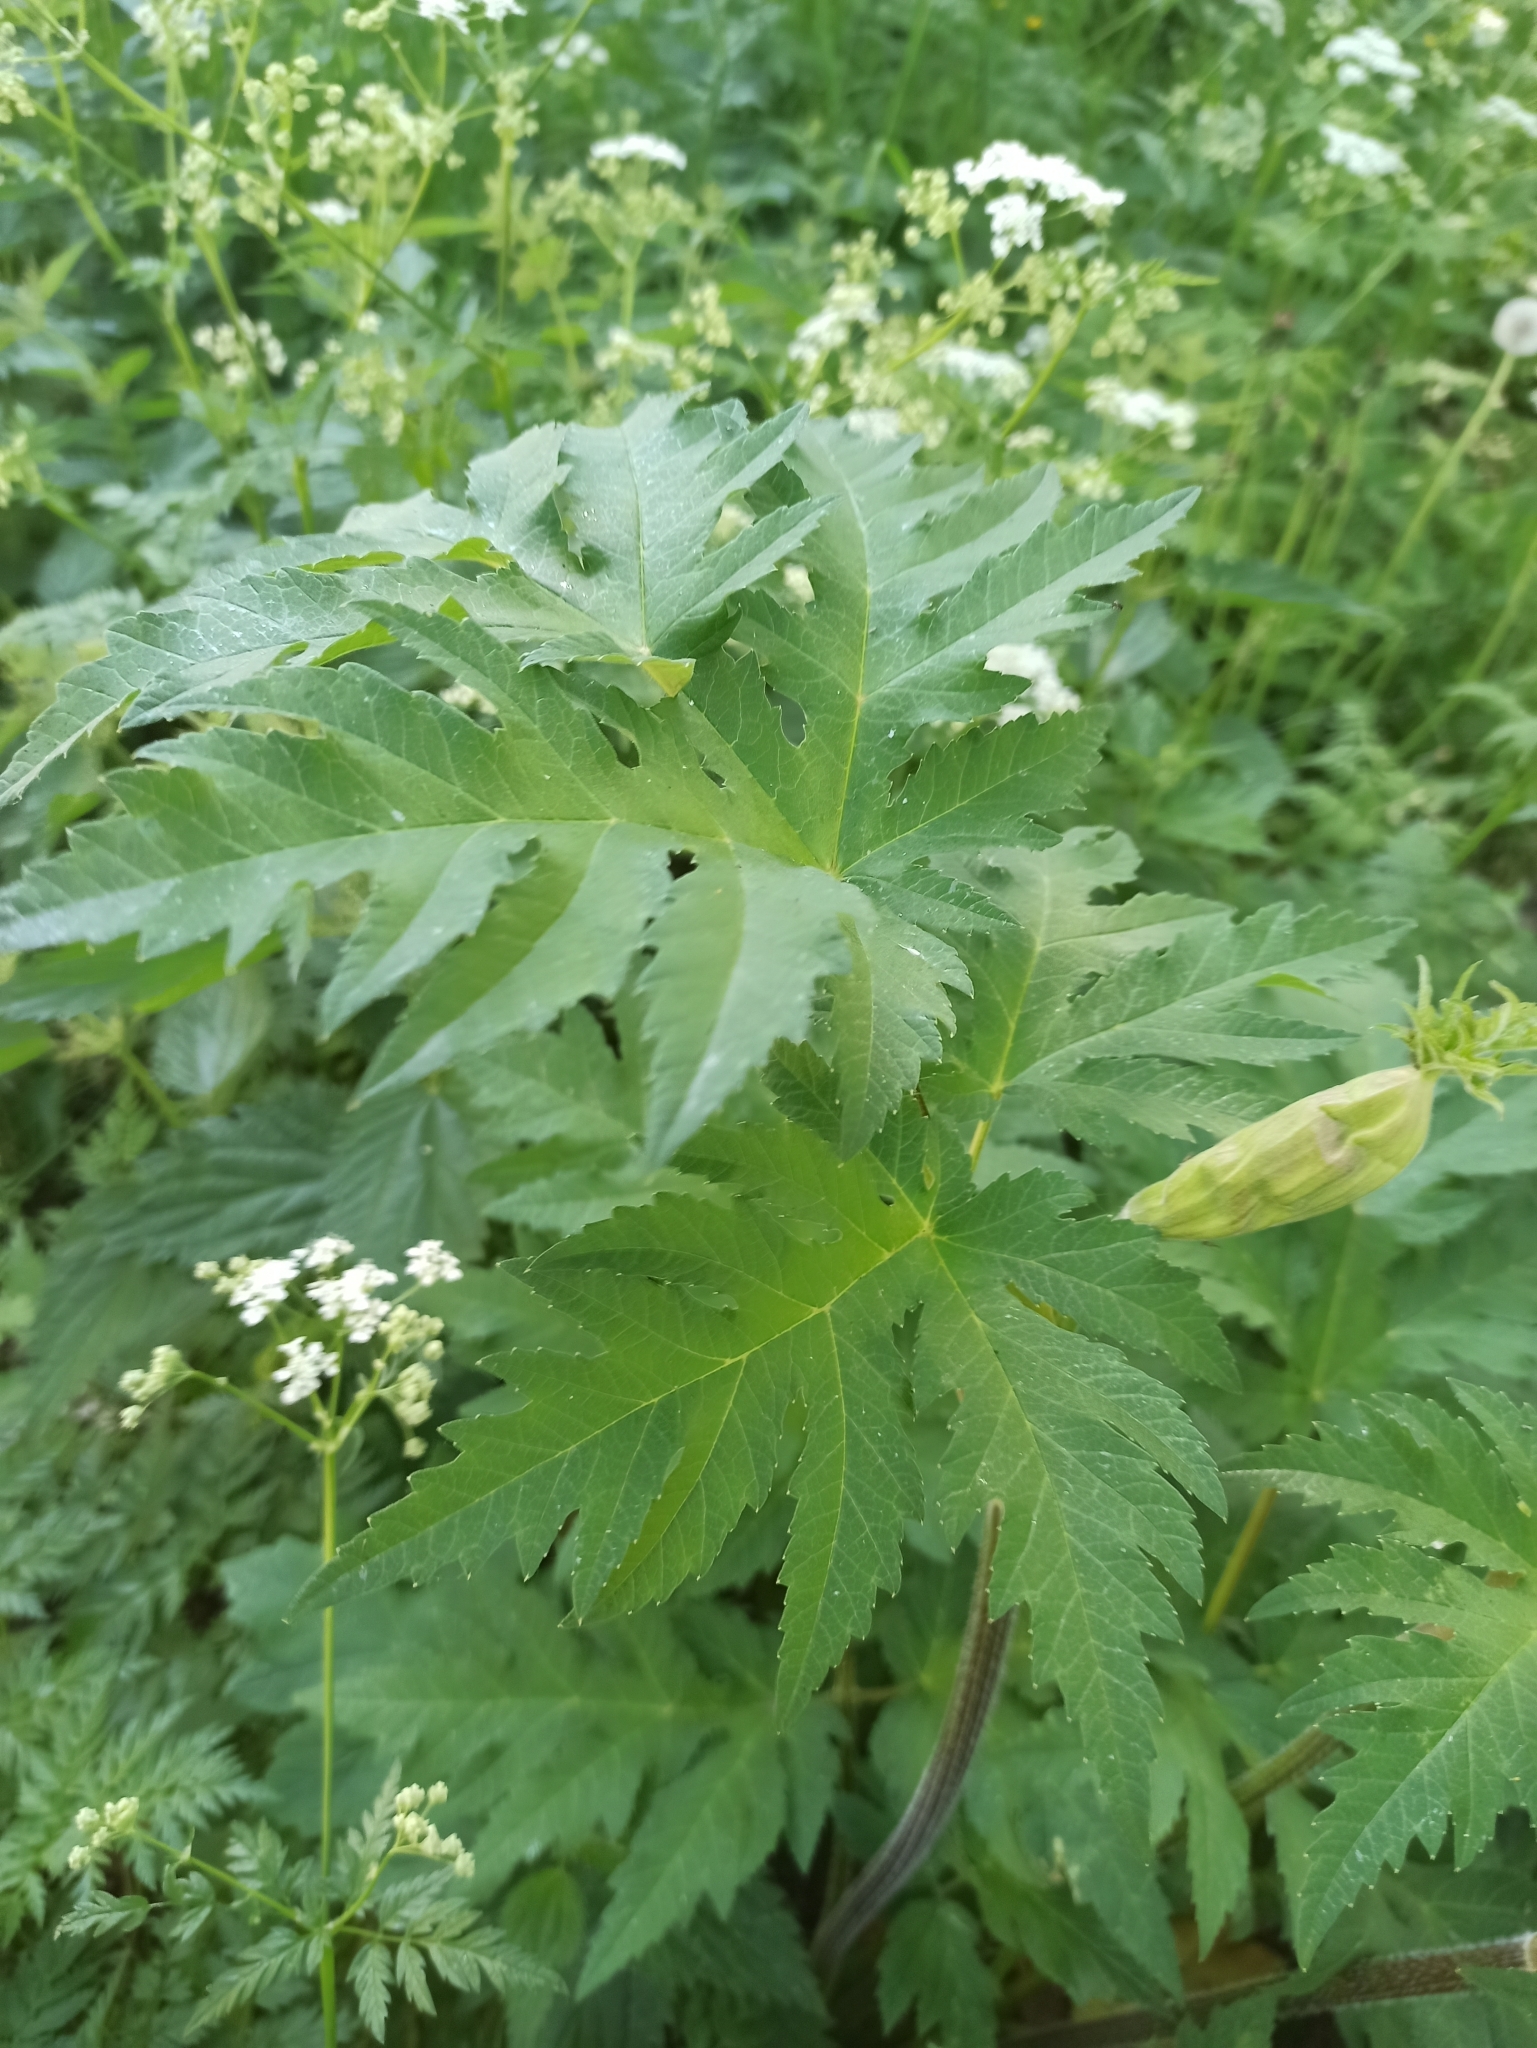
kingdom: Plantae
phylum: Tracheophyta
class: Magnoliopsida
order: Apiales
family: Apiaceae
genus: Heracleum
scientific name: Heracleum sphondylium
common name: Hogweed
